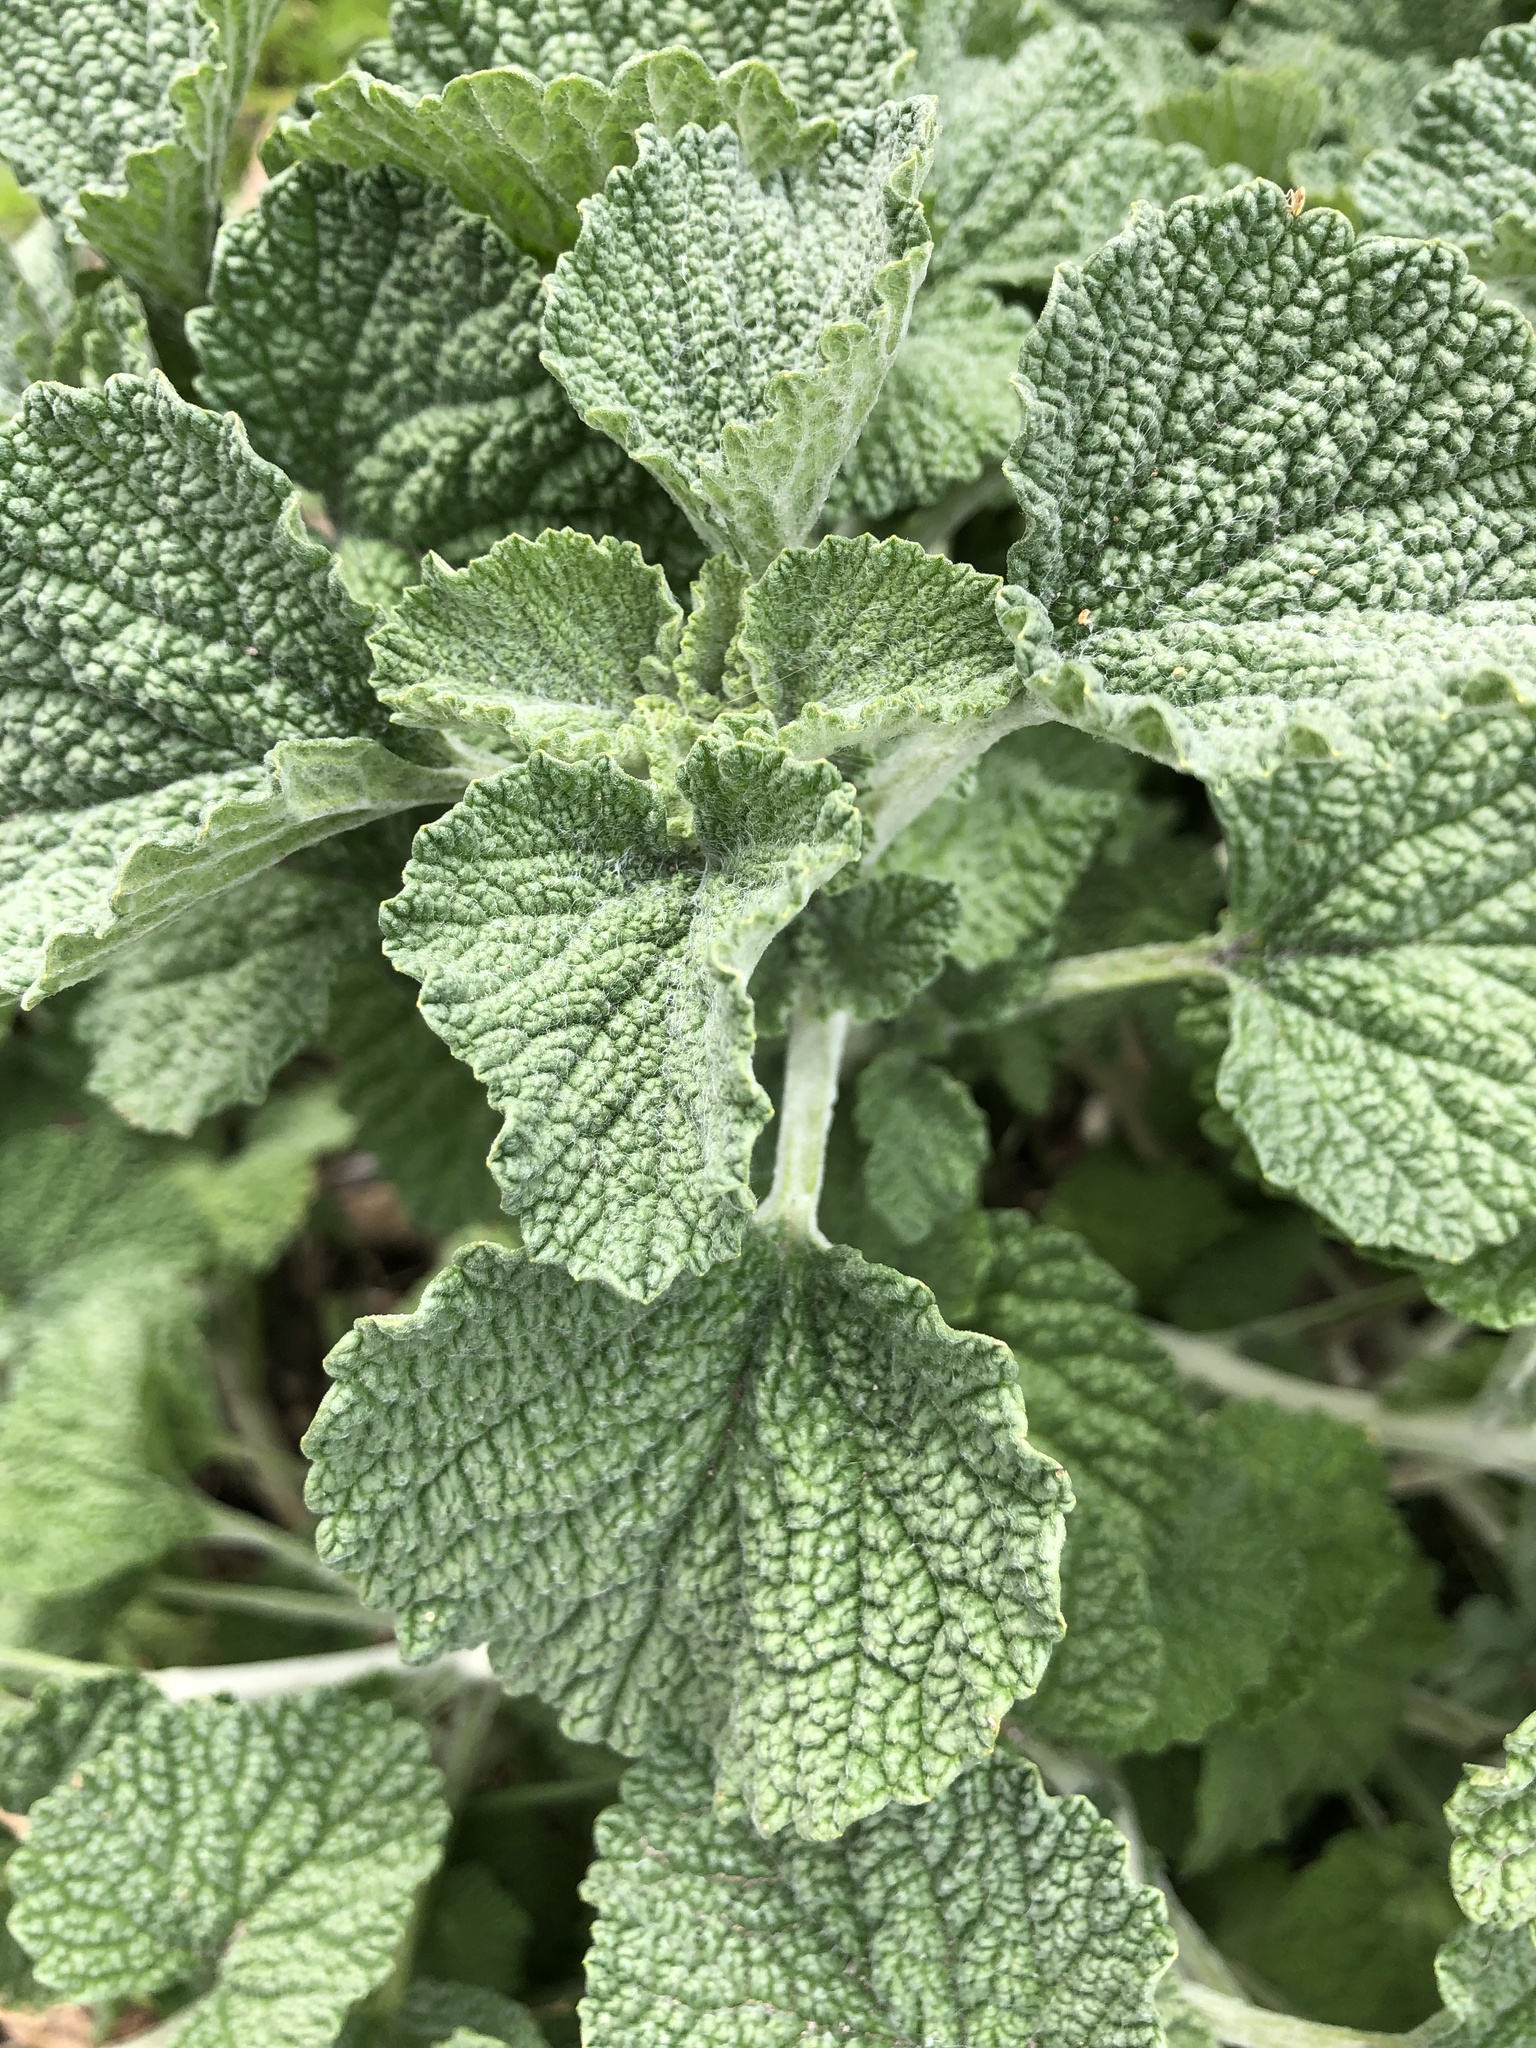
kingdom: Plantae
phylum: Tracheophyta
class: Magnoliopsida
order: Lamiales
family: Lamiaceae
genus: Marrubium
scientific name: Marrubium vulgare
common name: Horehound
